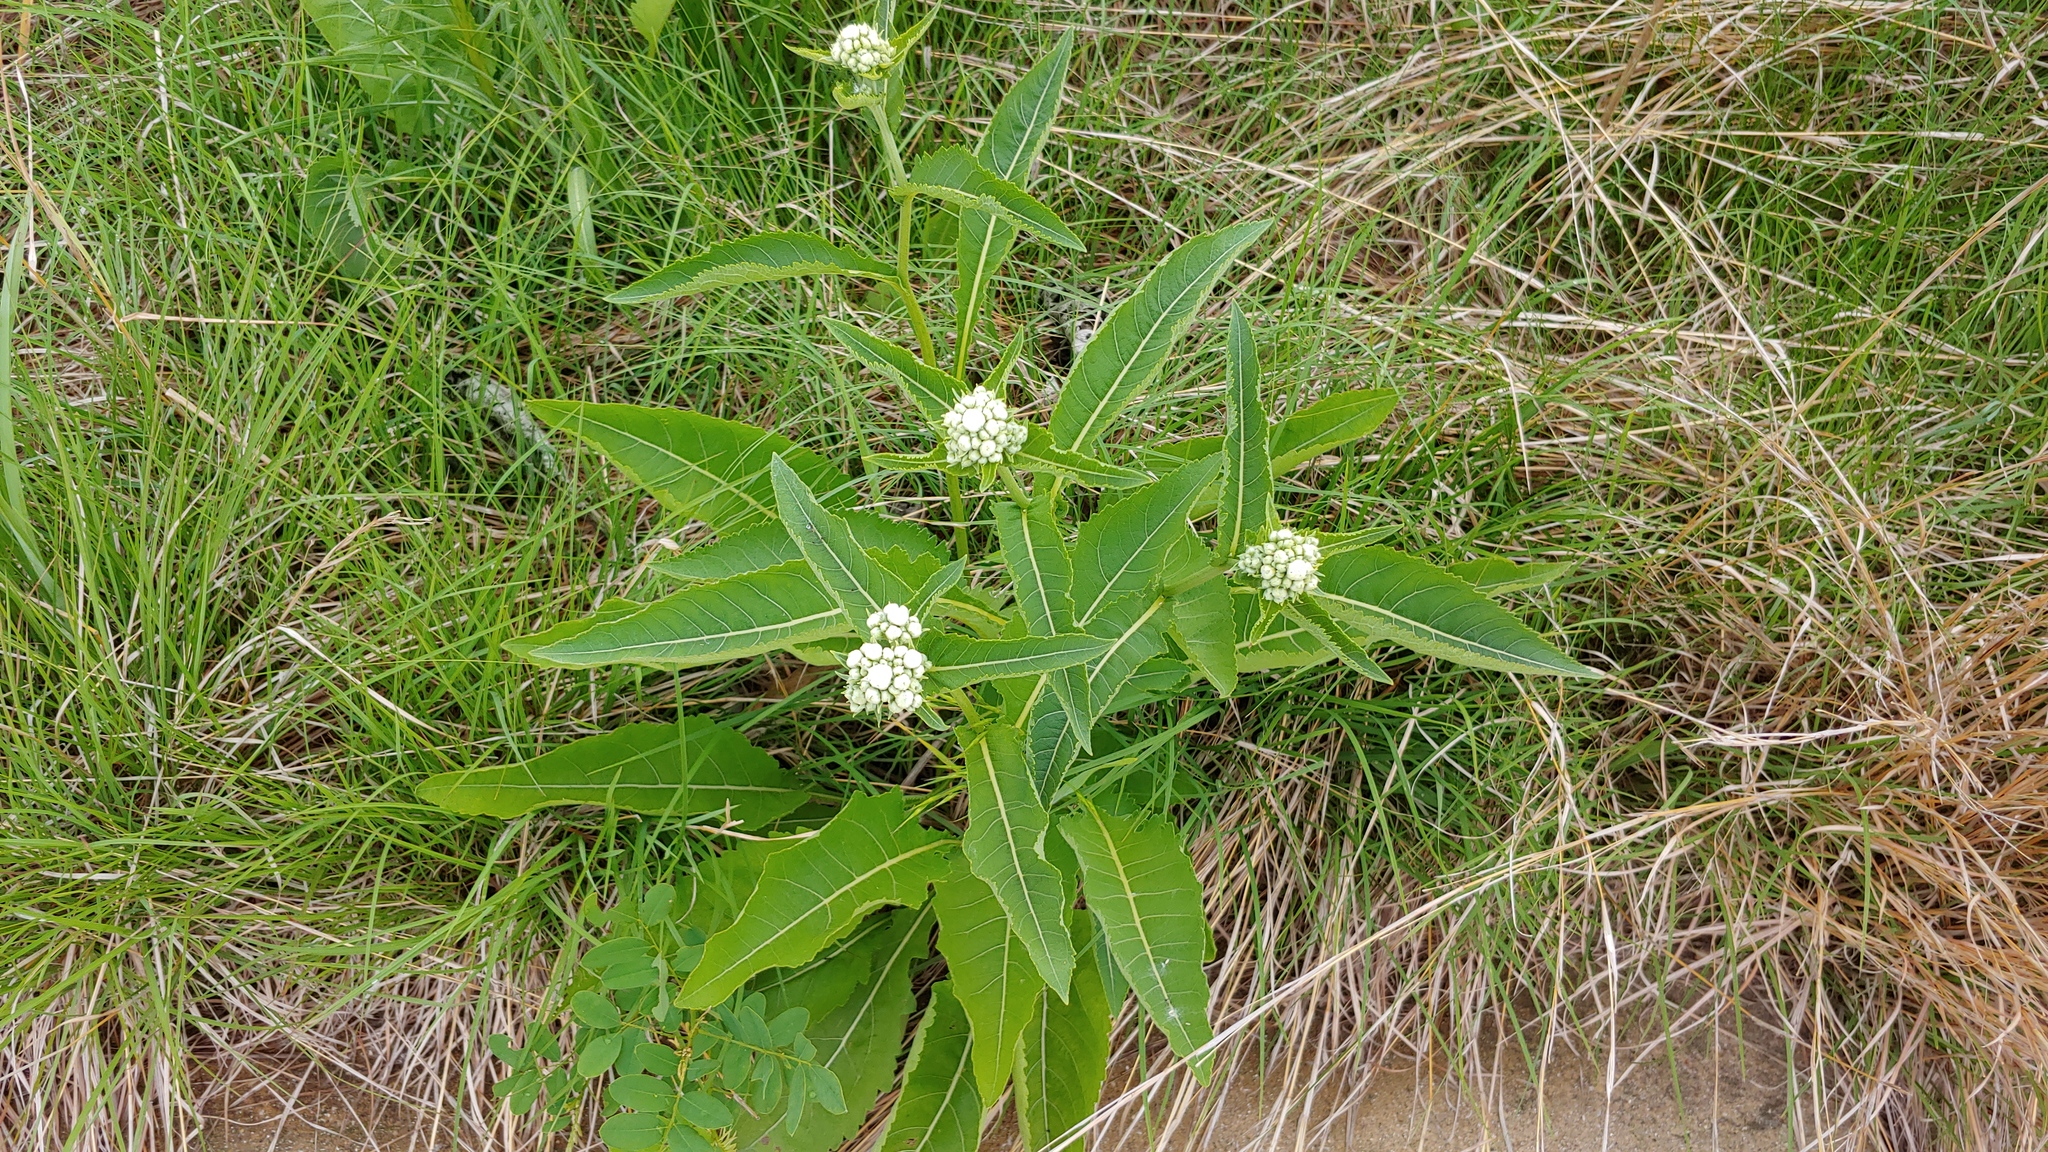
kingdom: Plantae
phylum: Tracheophyta
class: Magnoliopsida
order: Asterales
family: Asteraceae
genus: Parthenium
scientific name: Parthenium integrifolium
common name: American feverfew
